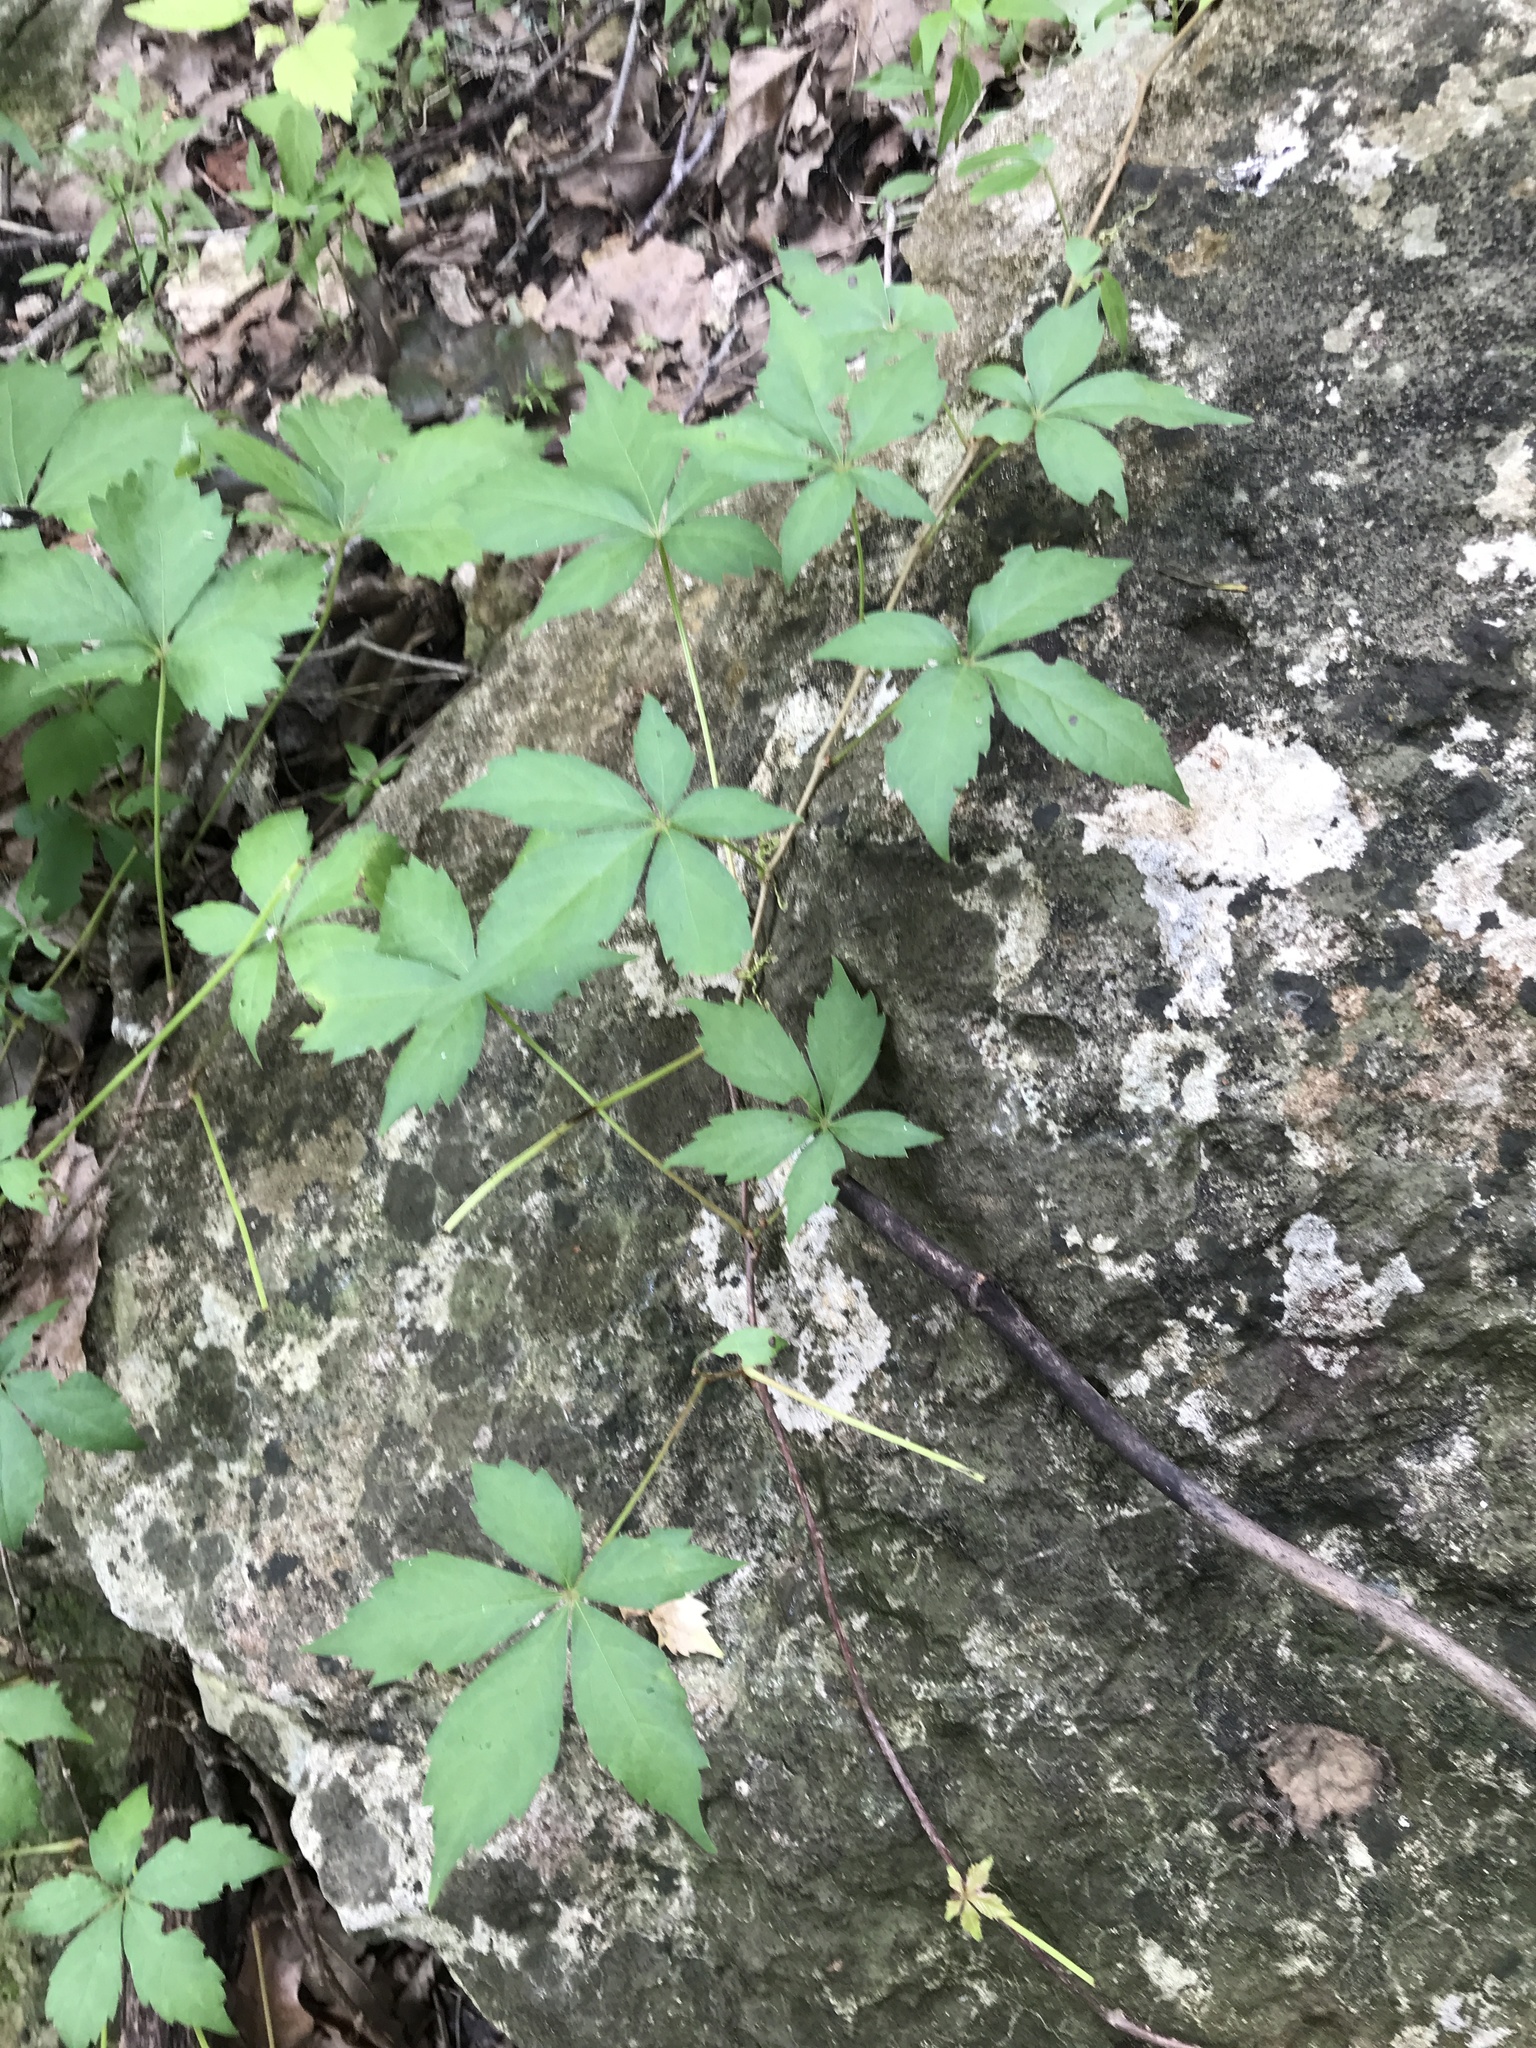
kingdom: Plantae
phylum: Tracheophyta
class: Magnoliopsida
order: Vitales
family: Vitaceae
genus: Parthenocissus
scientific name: Parthenocissus quinquefolia
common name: Virginia-creeper
